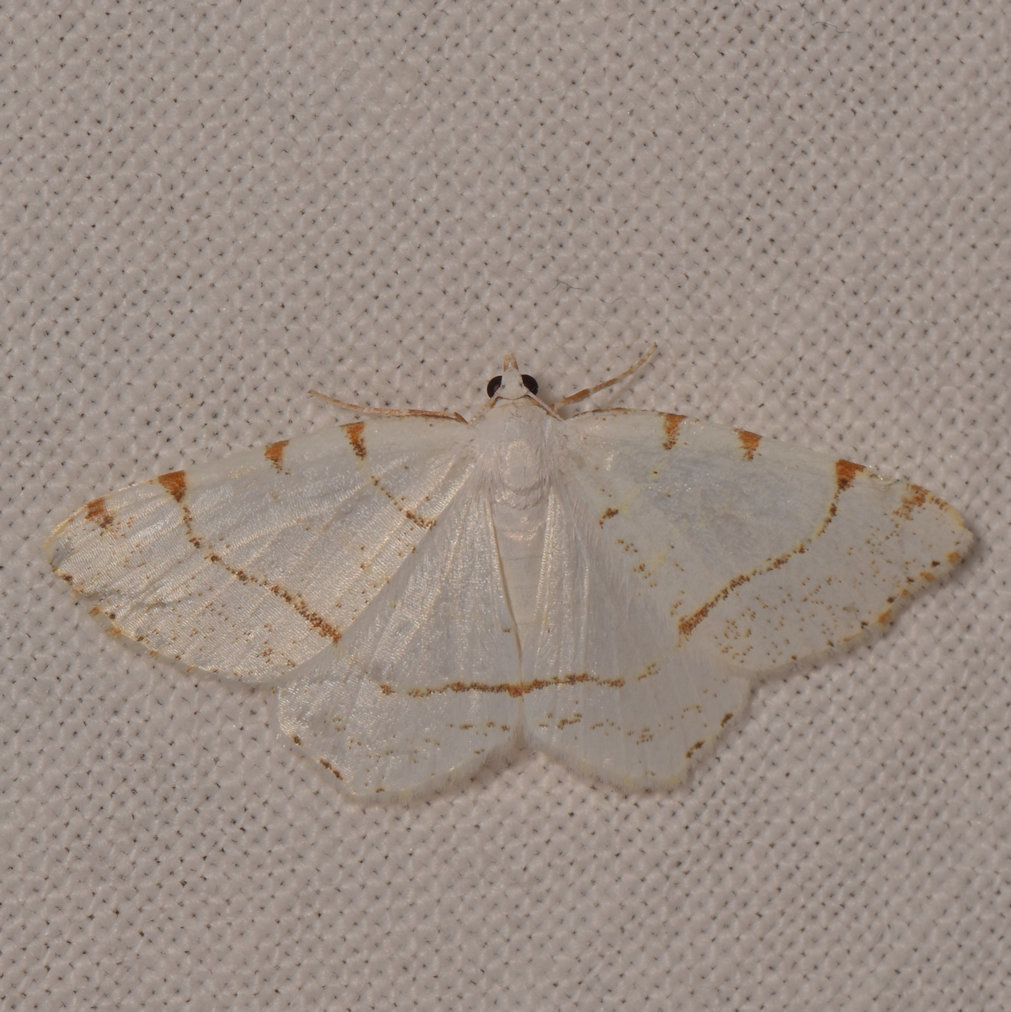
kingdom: Animalia
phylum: Arthropoda
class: Insecta
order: Lepidoptera
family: Geometridae
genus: Macaria
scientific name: Macaria pustularia
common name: Lesser maple spanworm moth
